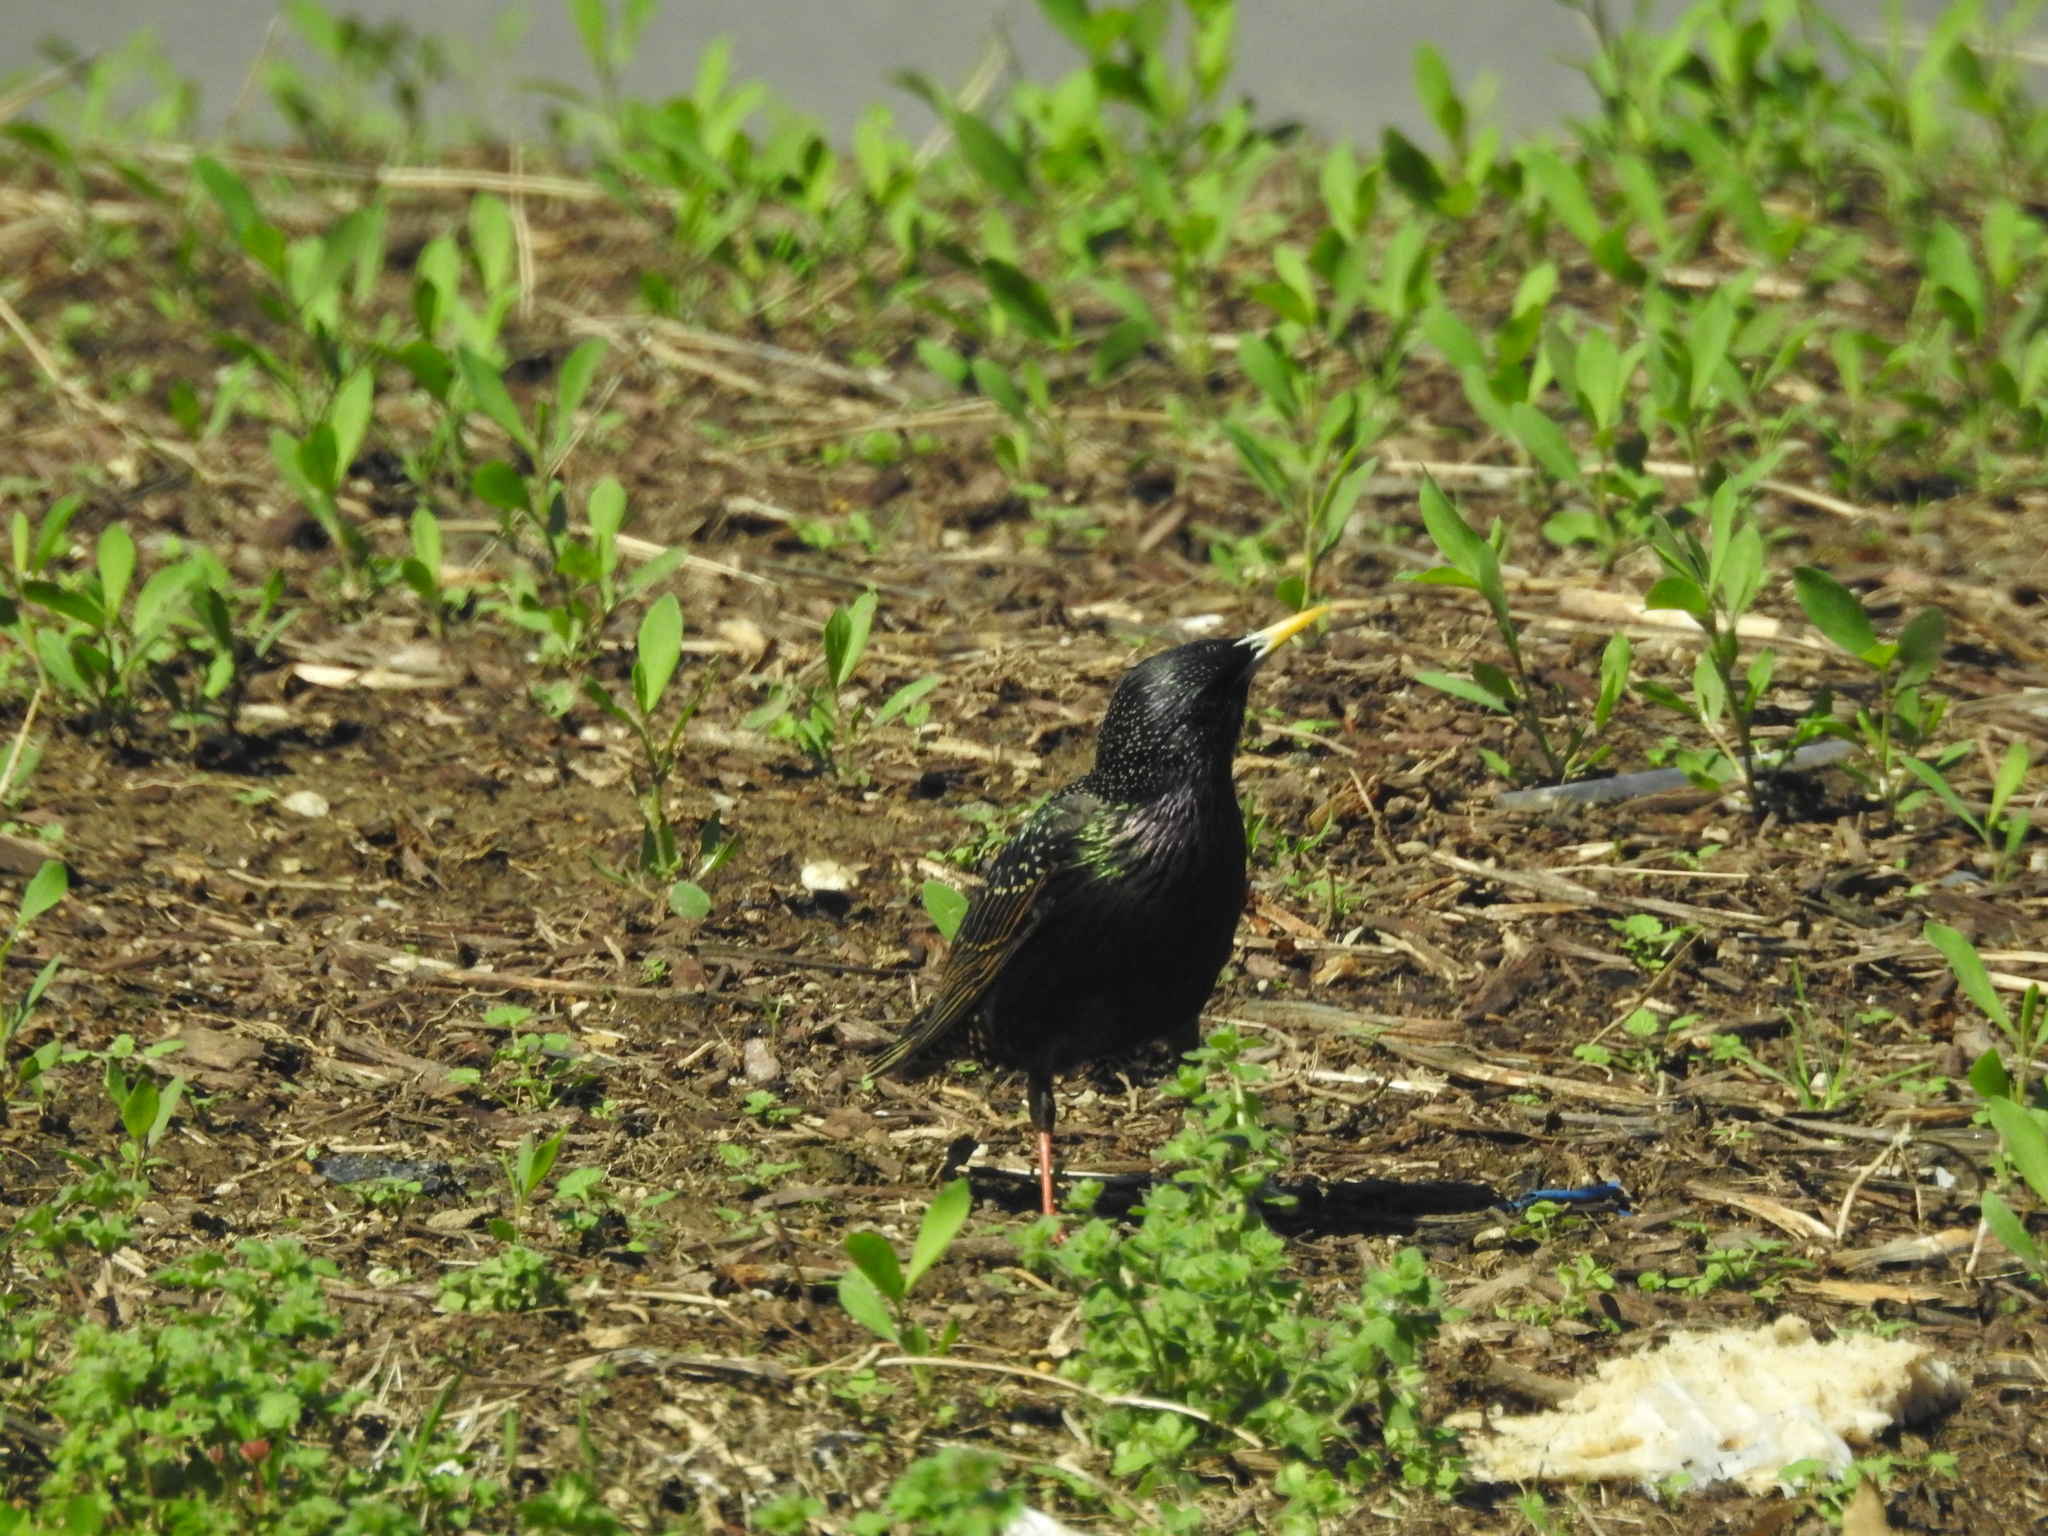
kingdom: Animalia
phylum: Chordata
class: Aves
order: Passeriformes
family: Sturnidae
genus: Sturnus
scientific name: Sturnus vulgaris
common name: Common starling
